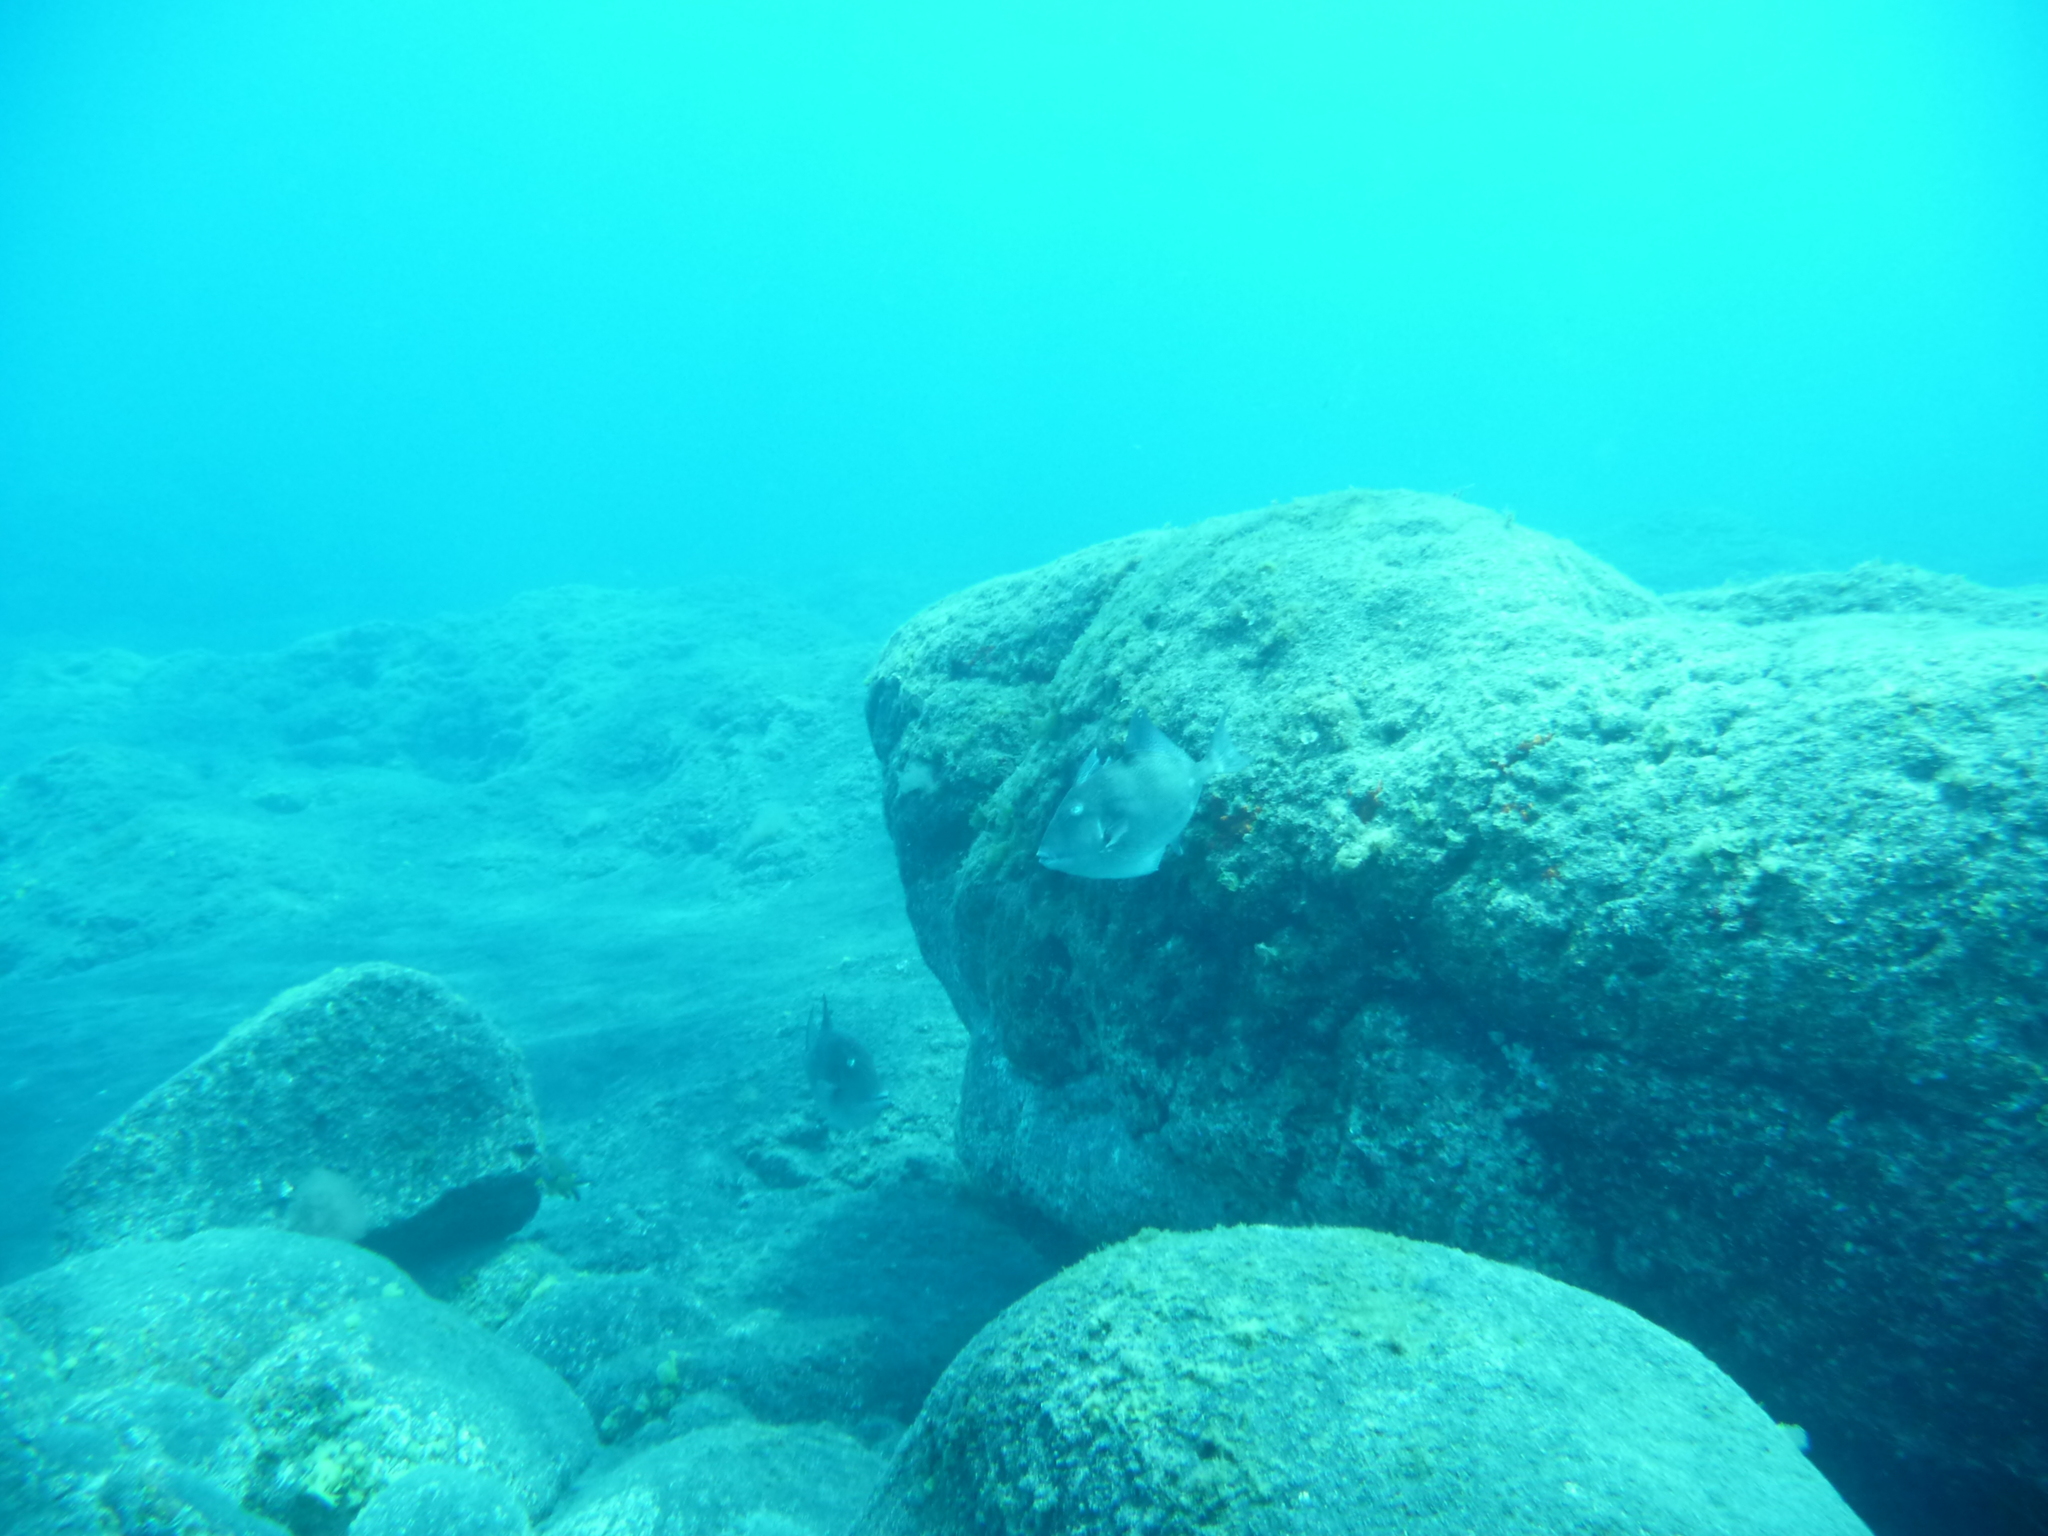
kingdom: Animalia
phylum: Chordata
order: Tetraodontiformes
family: Balistidae
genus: Balistes
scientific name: Balistes capriscus
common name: Grey triggerfish
